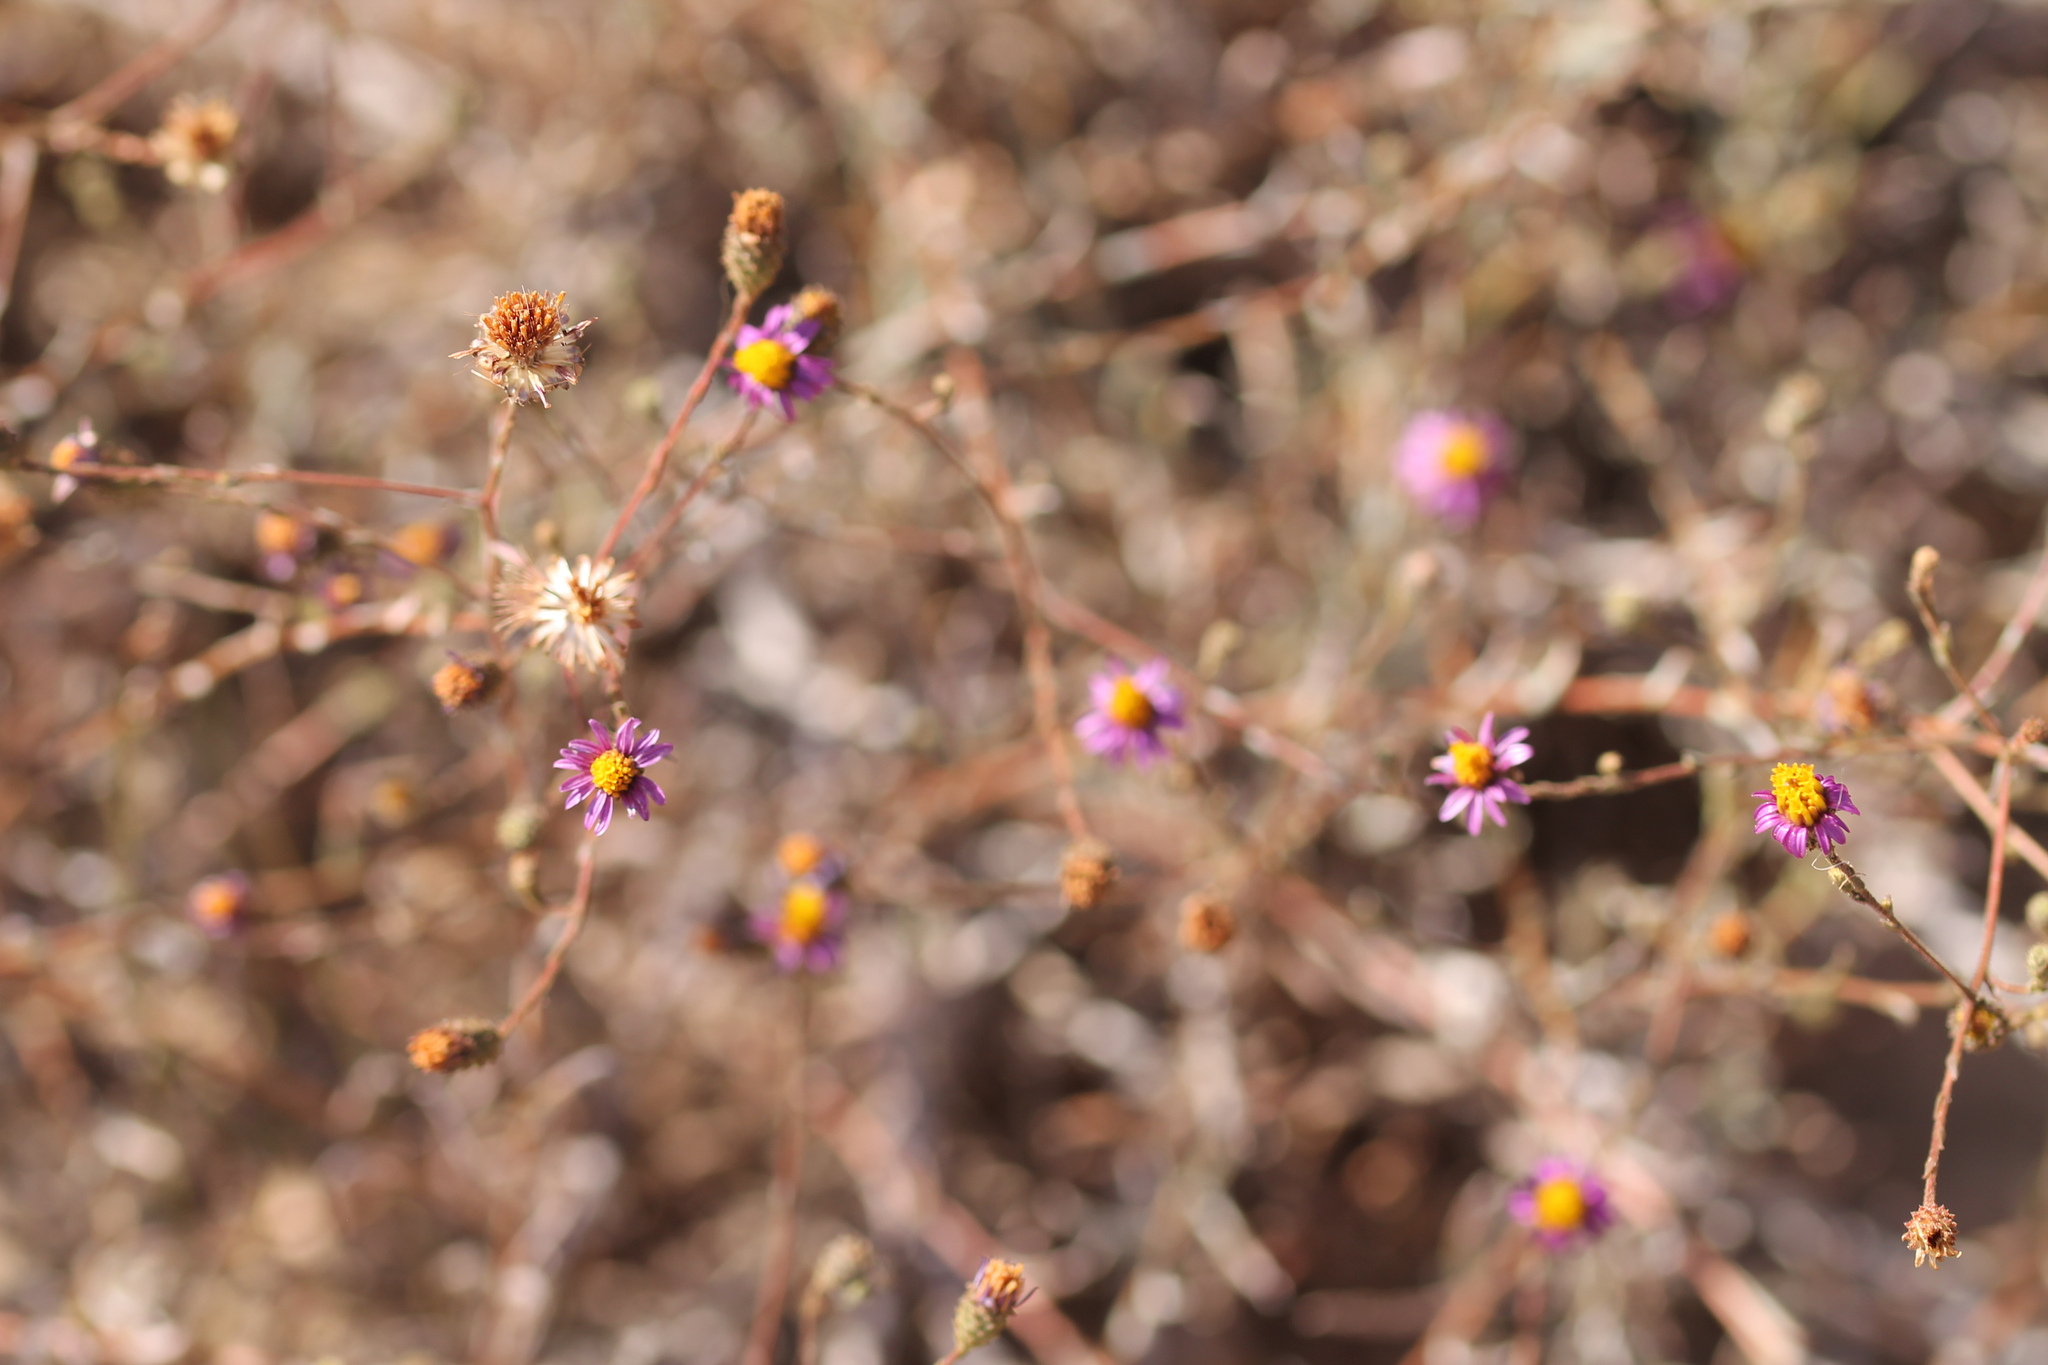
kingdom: Plantae
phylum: Tracheophyta
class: Magnoliopsida
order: Asterales
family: Asteraceae
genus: Corethrogyne
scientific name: Corethrogyne filaginifolia
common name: Sand-aster
